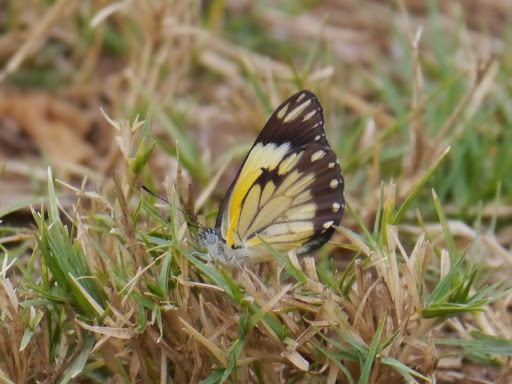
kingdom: Animalia
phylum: Arthropoda
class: Insecta
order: Lepidoptera
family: Pieridae
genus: Belenois
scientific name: Belenois creona
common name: African caper white
